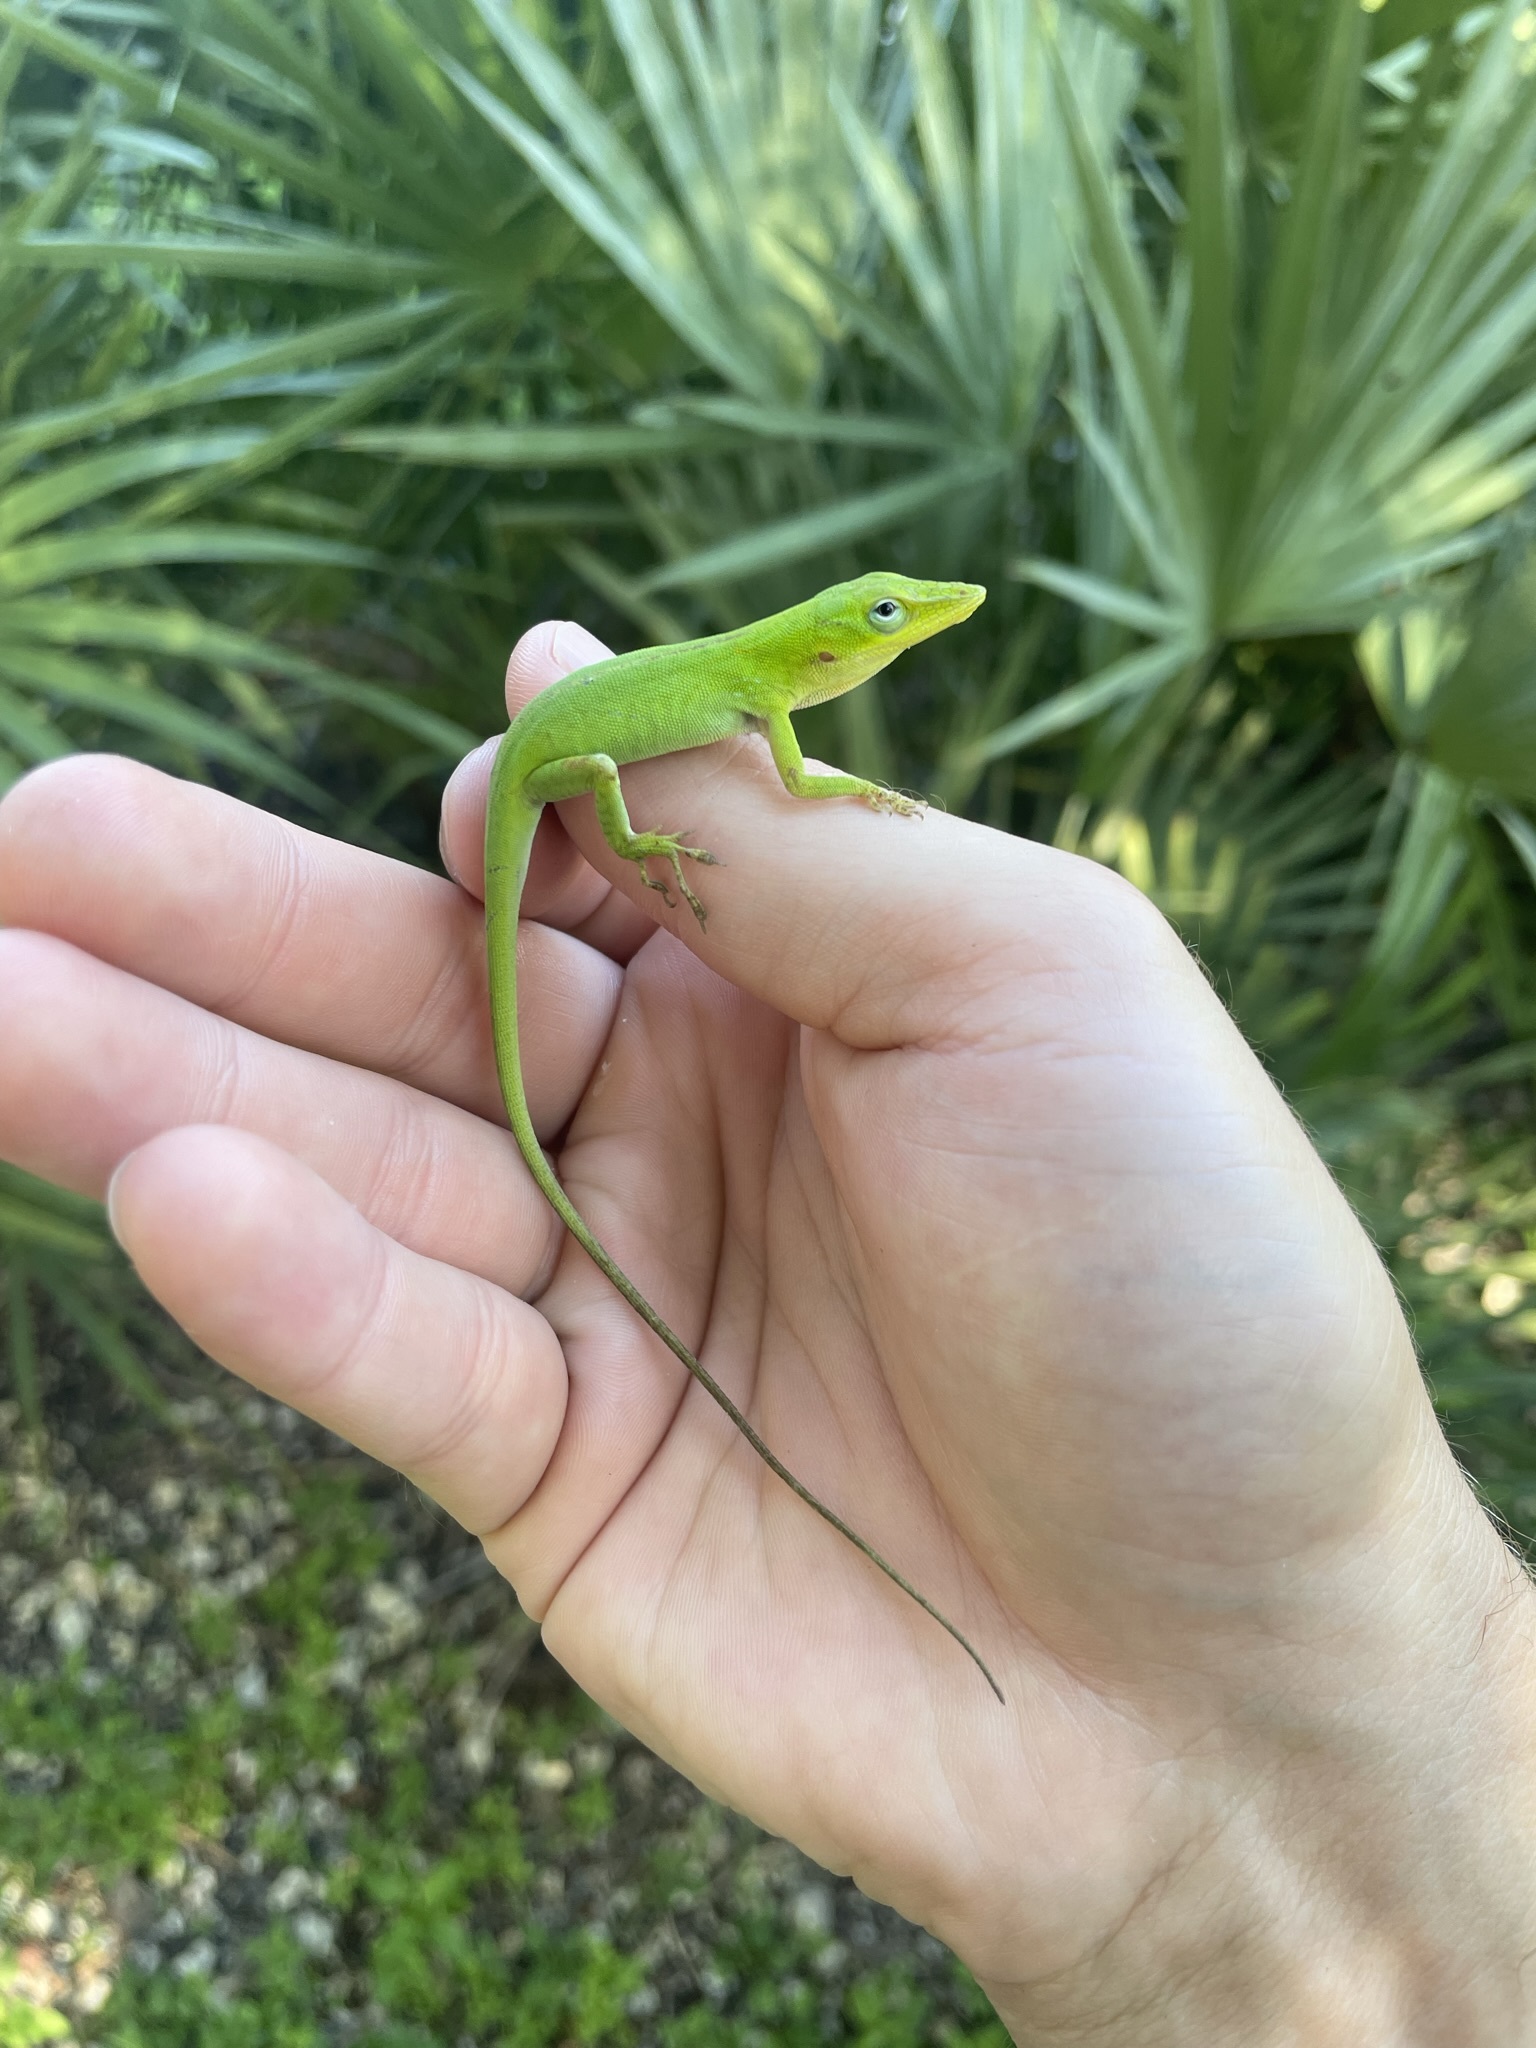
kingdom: Animalia
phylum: Chordata
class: Squamata
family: Dactyloidae
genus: Anolis
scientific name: Anolis carolinensis
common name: Green anole
